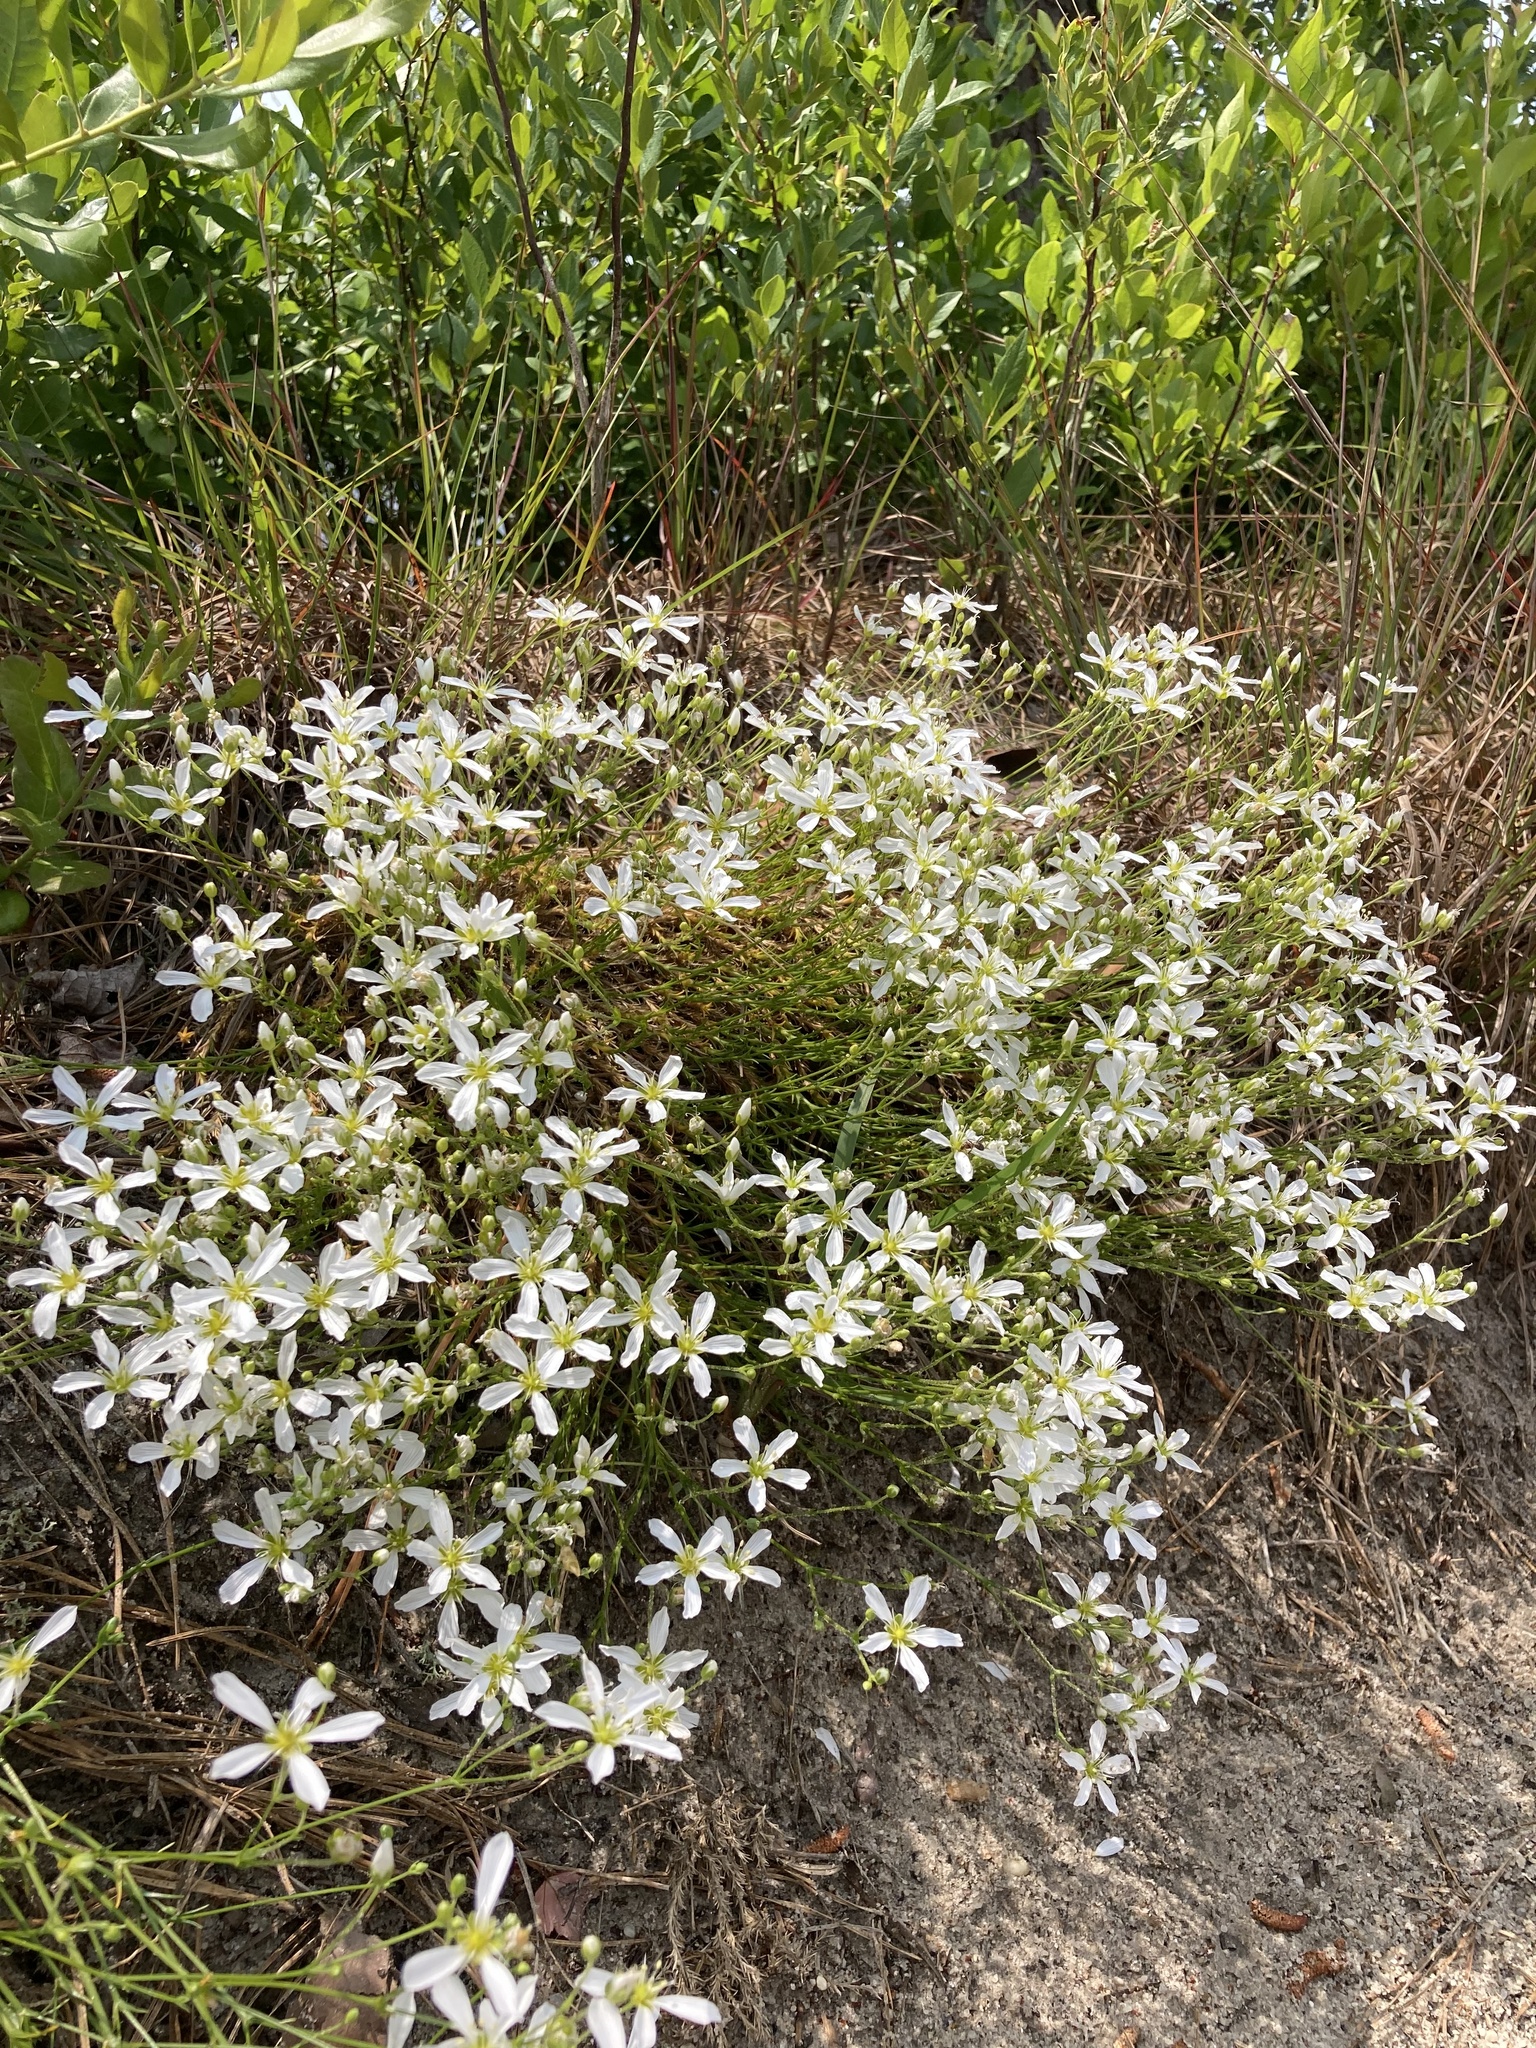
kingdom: Plantae
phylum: Tracheophyta
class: Magnoliopsida
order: Caryophyllales
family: Caryophyllaceae
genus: Geocarpon
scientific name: Geocarpon carolinianum
